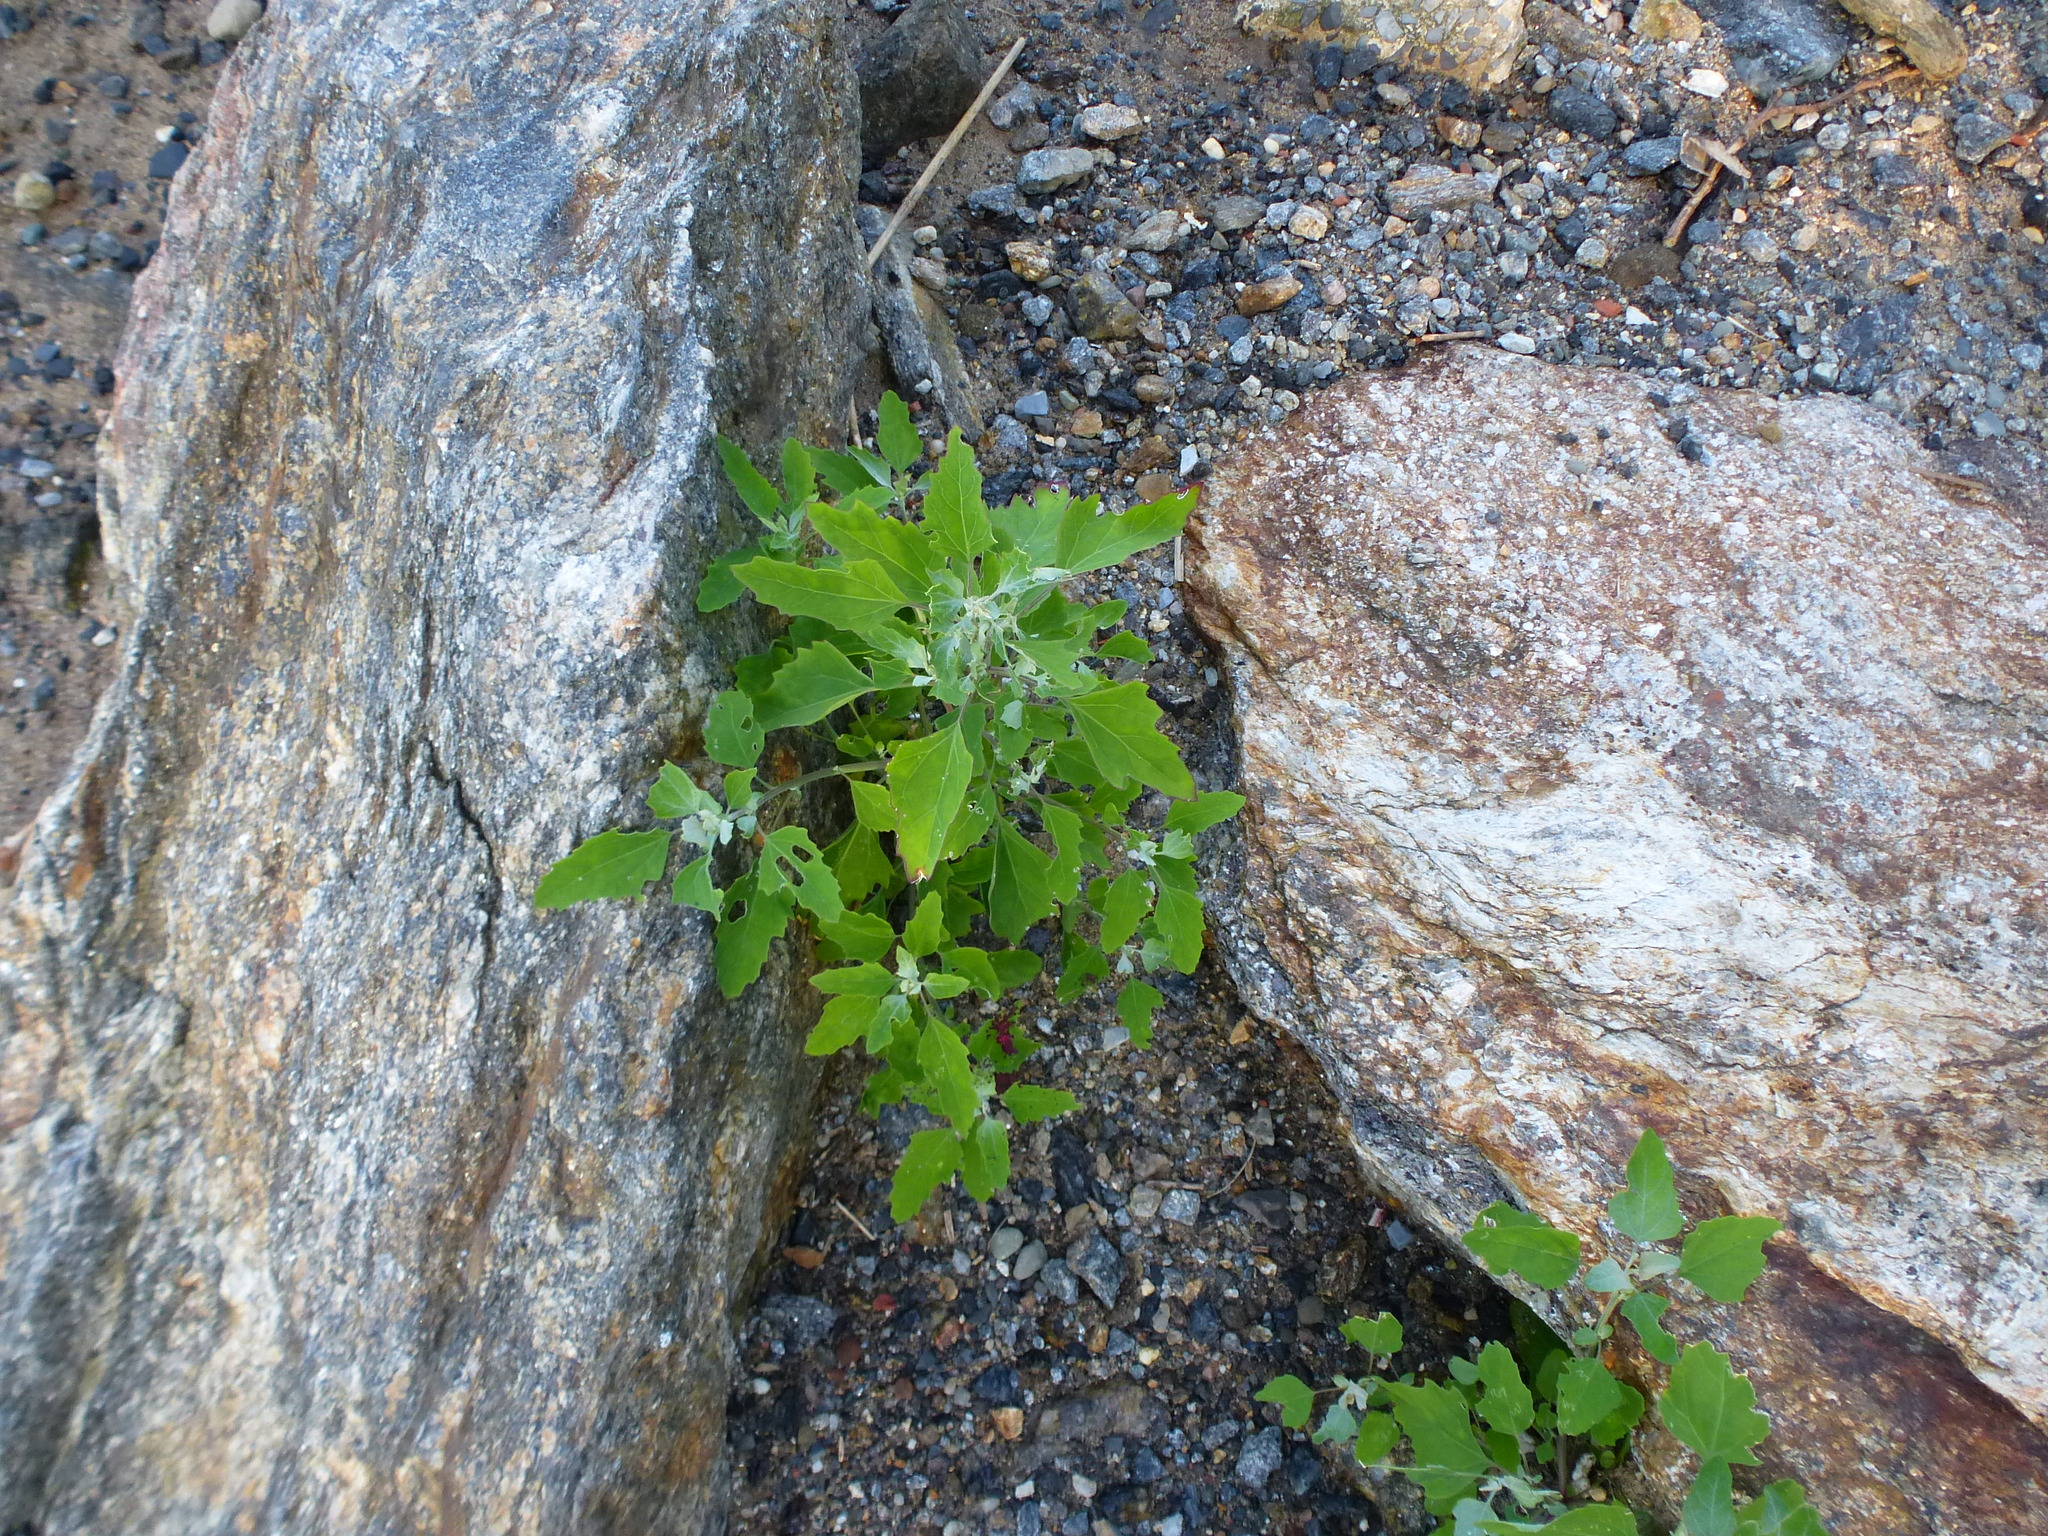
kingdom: Plantae
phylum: Tracheophyta
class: Magnoliopsida
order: Caryophyllales
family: Amaranthaceae
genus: Chenopodium
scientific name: Chenopodium album
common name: Fat-hen
